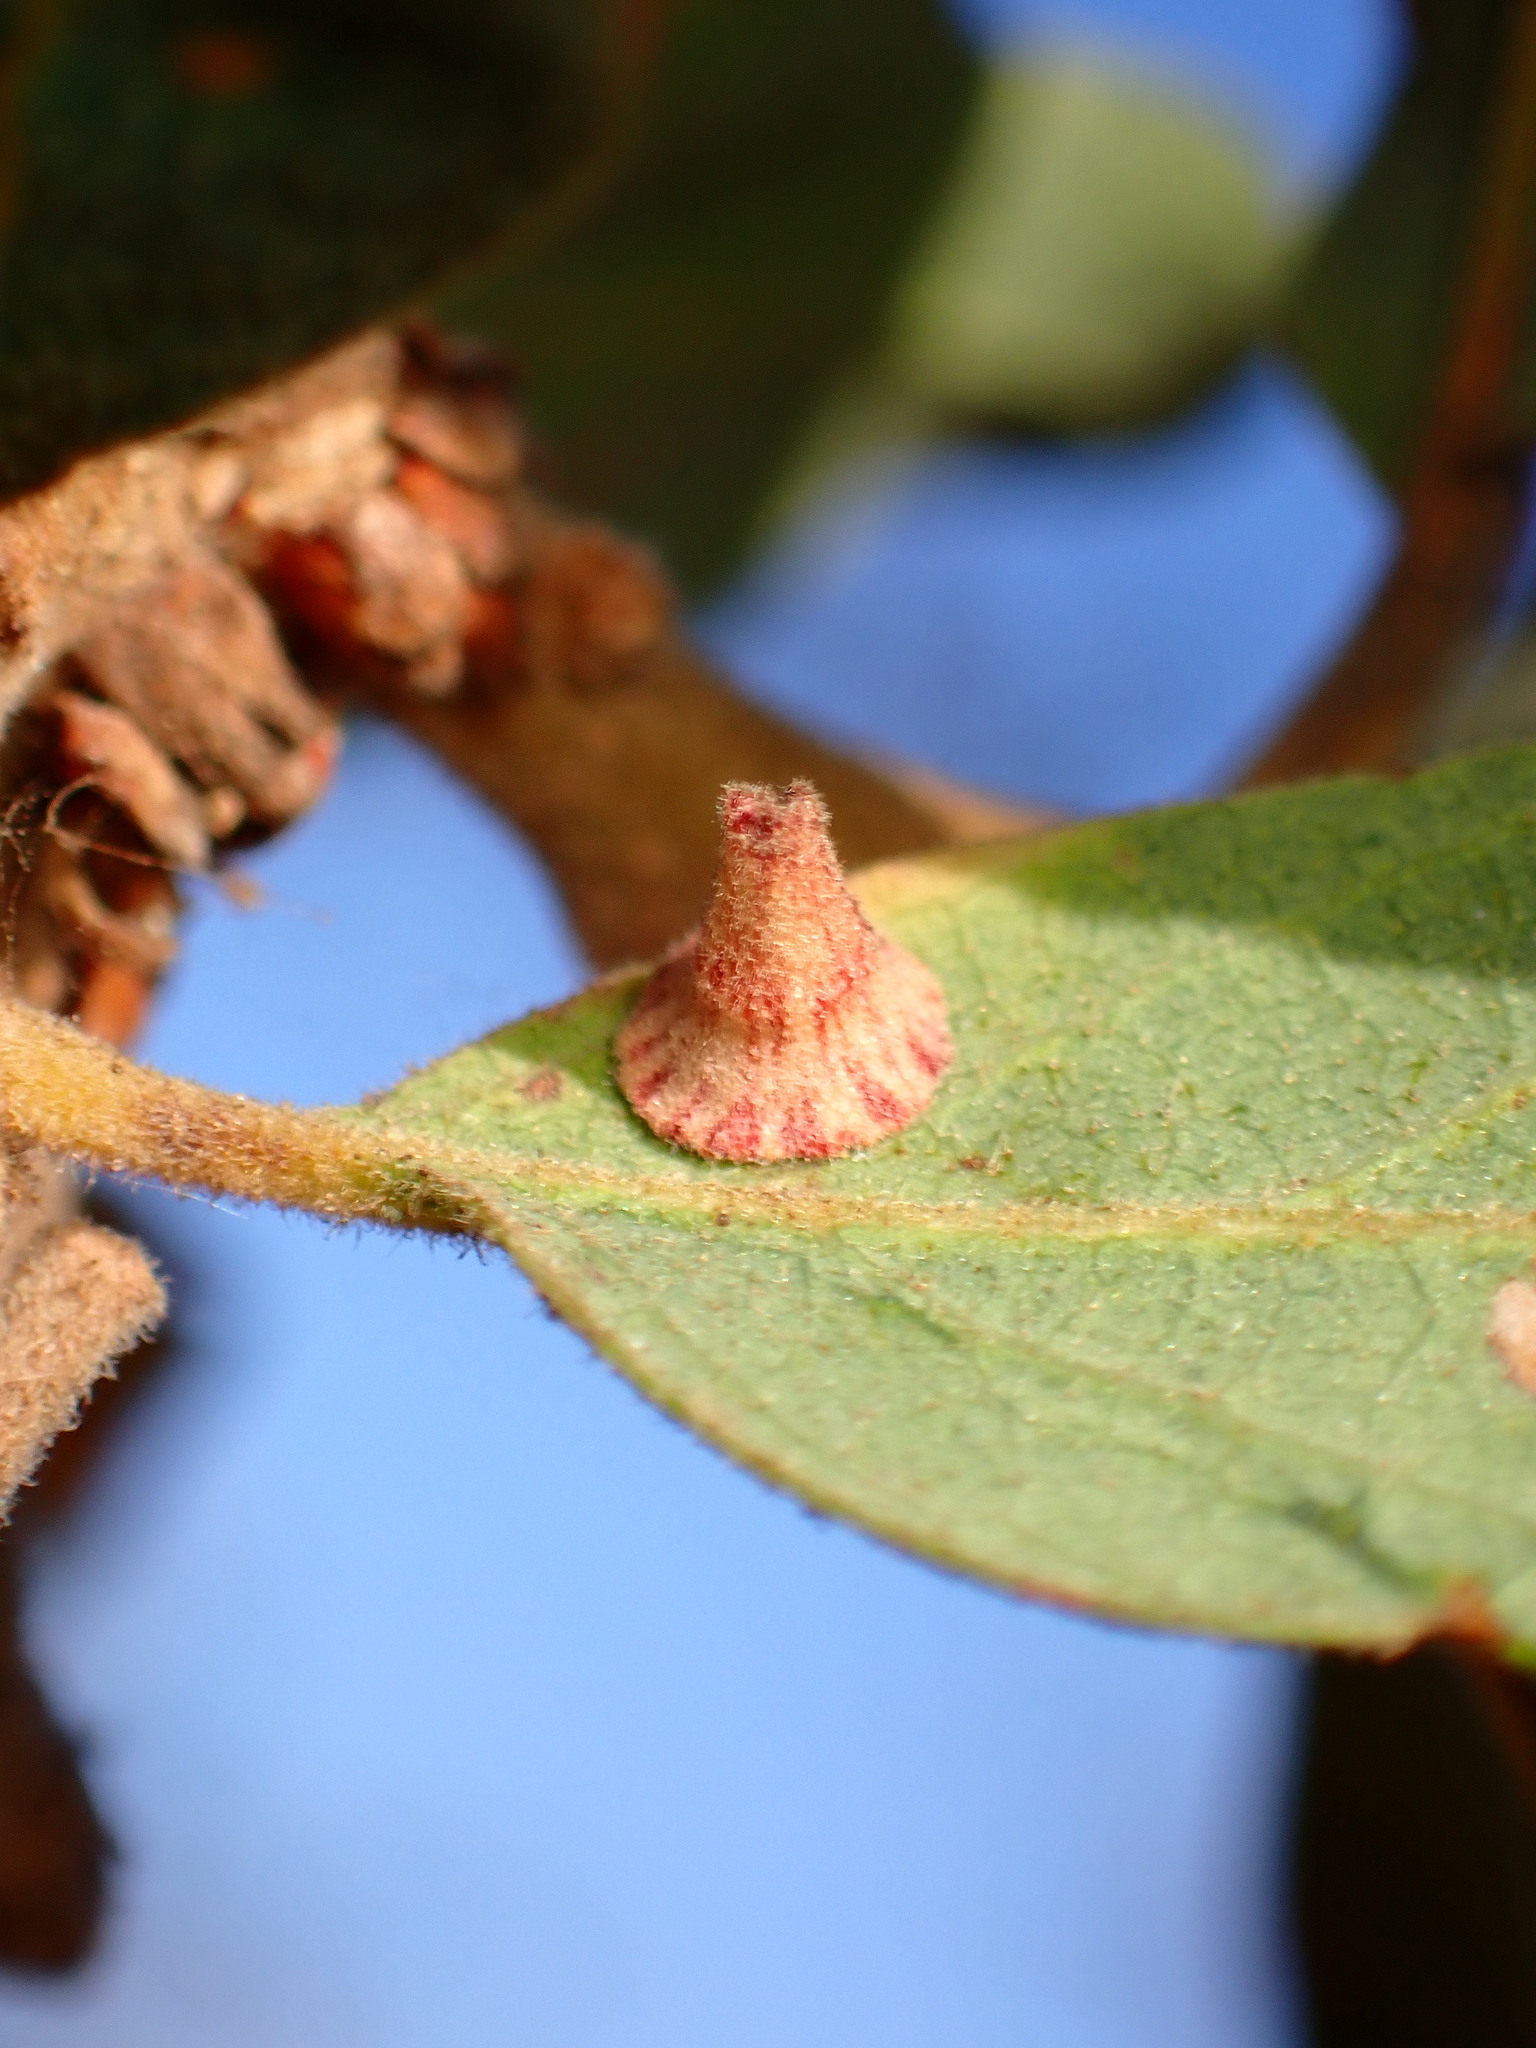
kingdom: Animalia
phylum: Arthropoda
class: Insecta
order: Hymenoptera
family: Cynipidae
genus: Andricus
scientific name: Andricus
